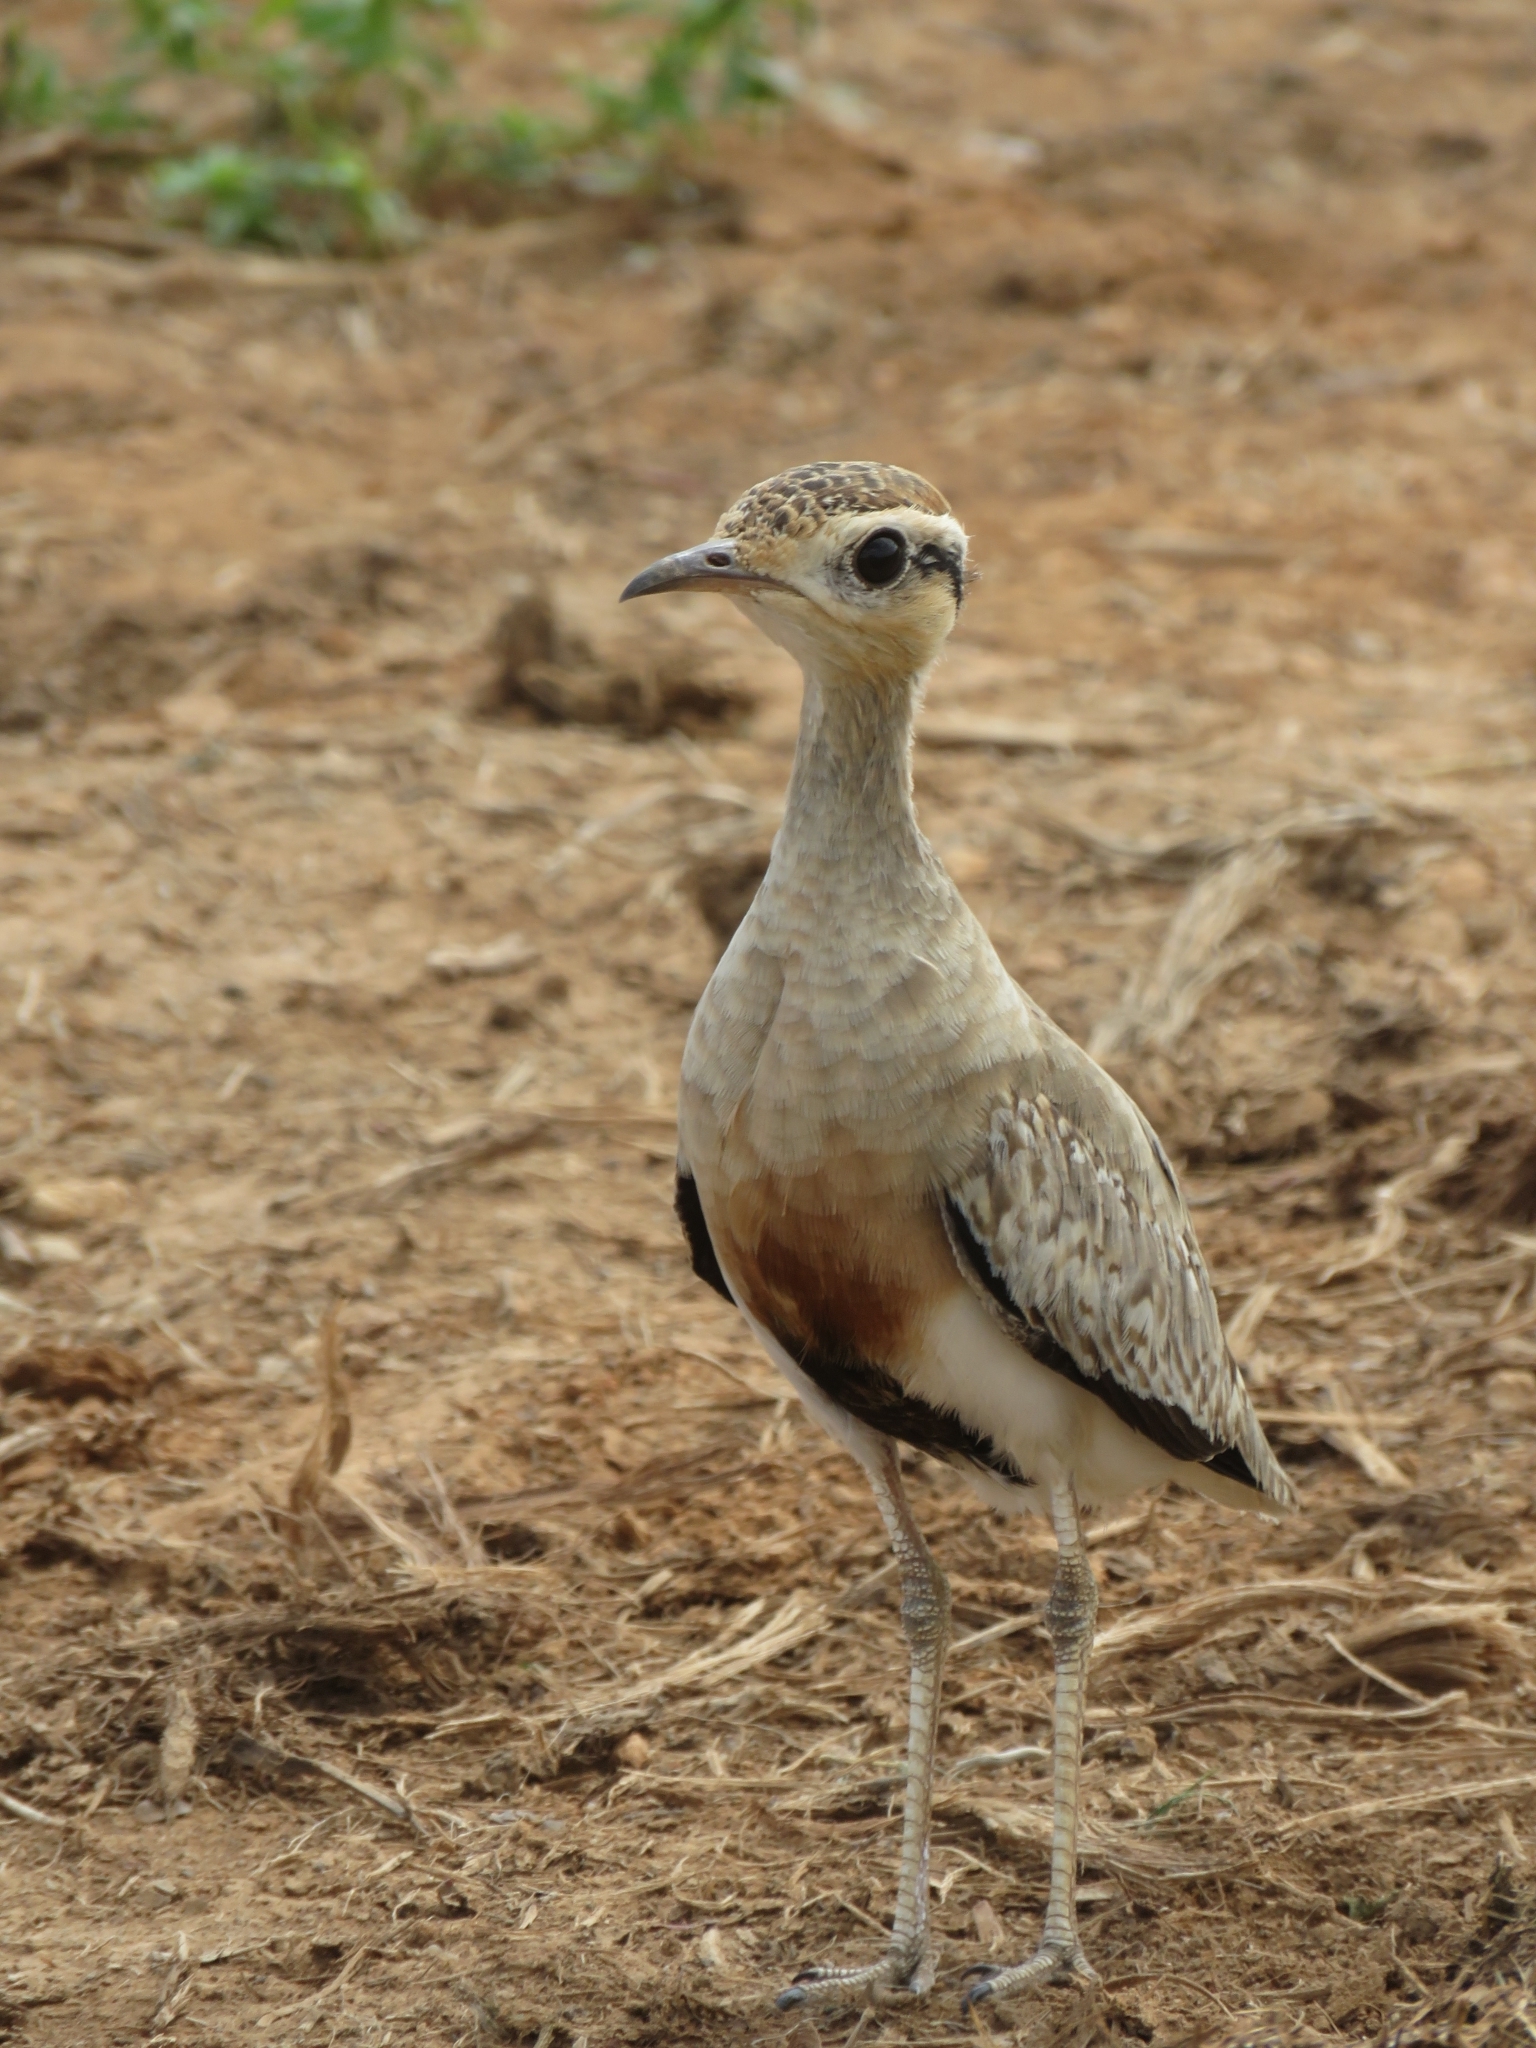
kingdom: Animalia
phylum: Chordata
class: Aves
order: Charadriiformes
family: Glareolidae
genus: Cursorius
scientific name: Cursorius temminckii
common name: Temminck's courser
